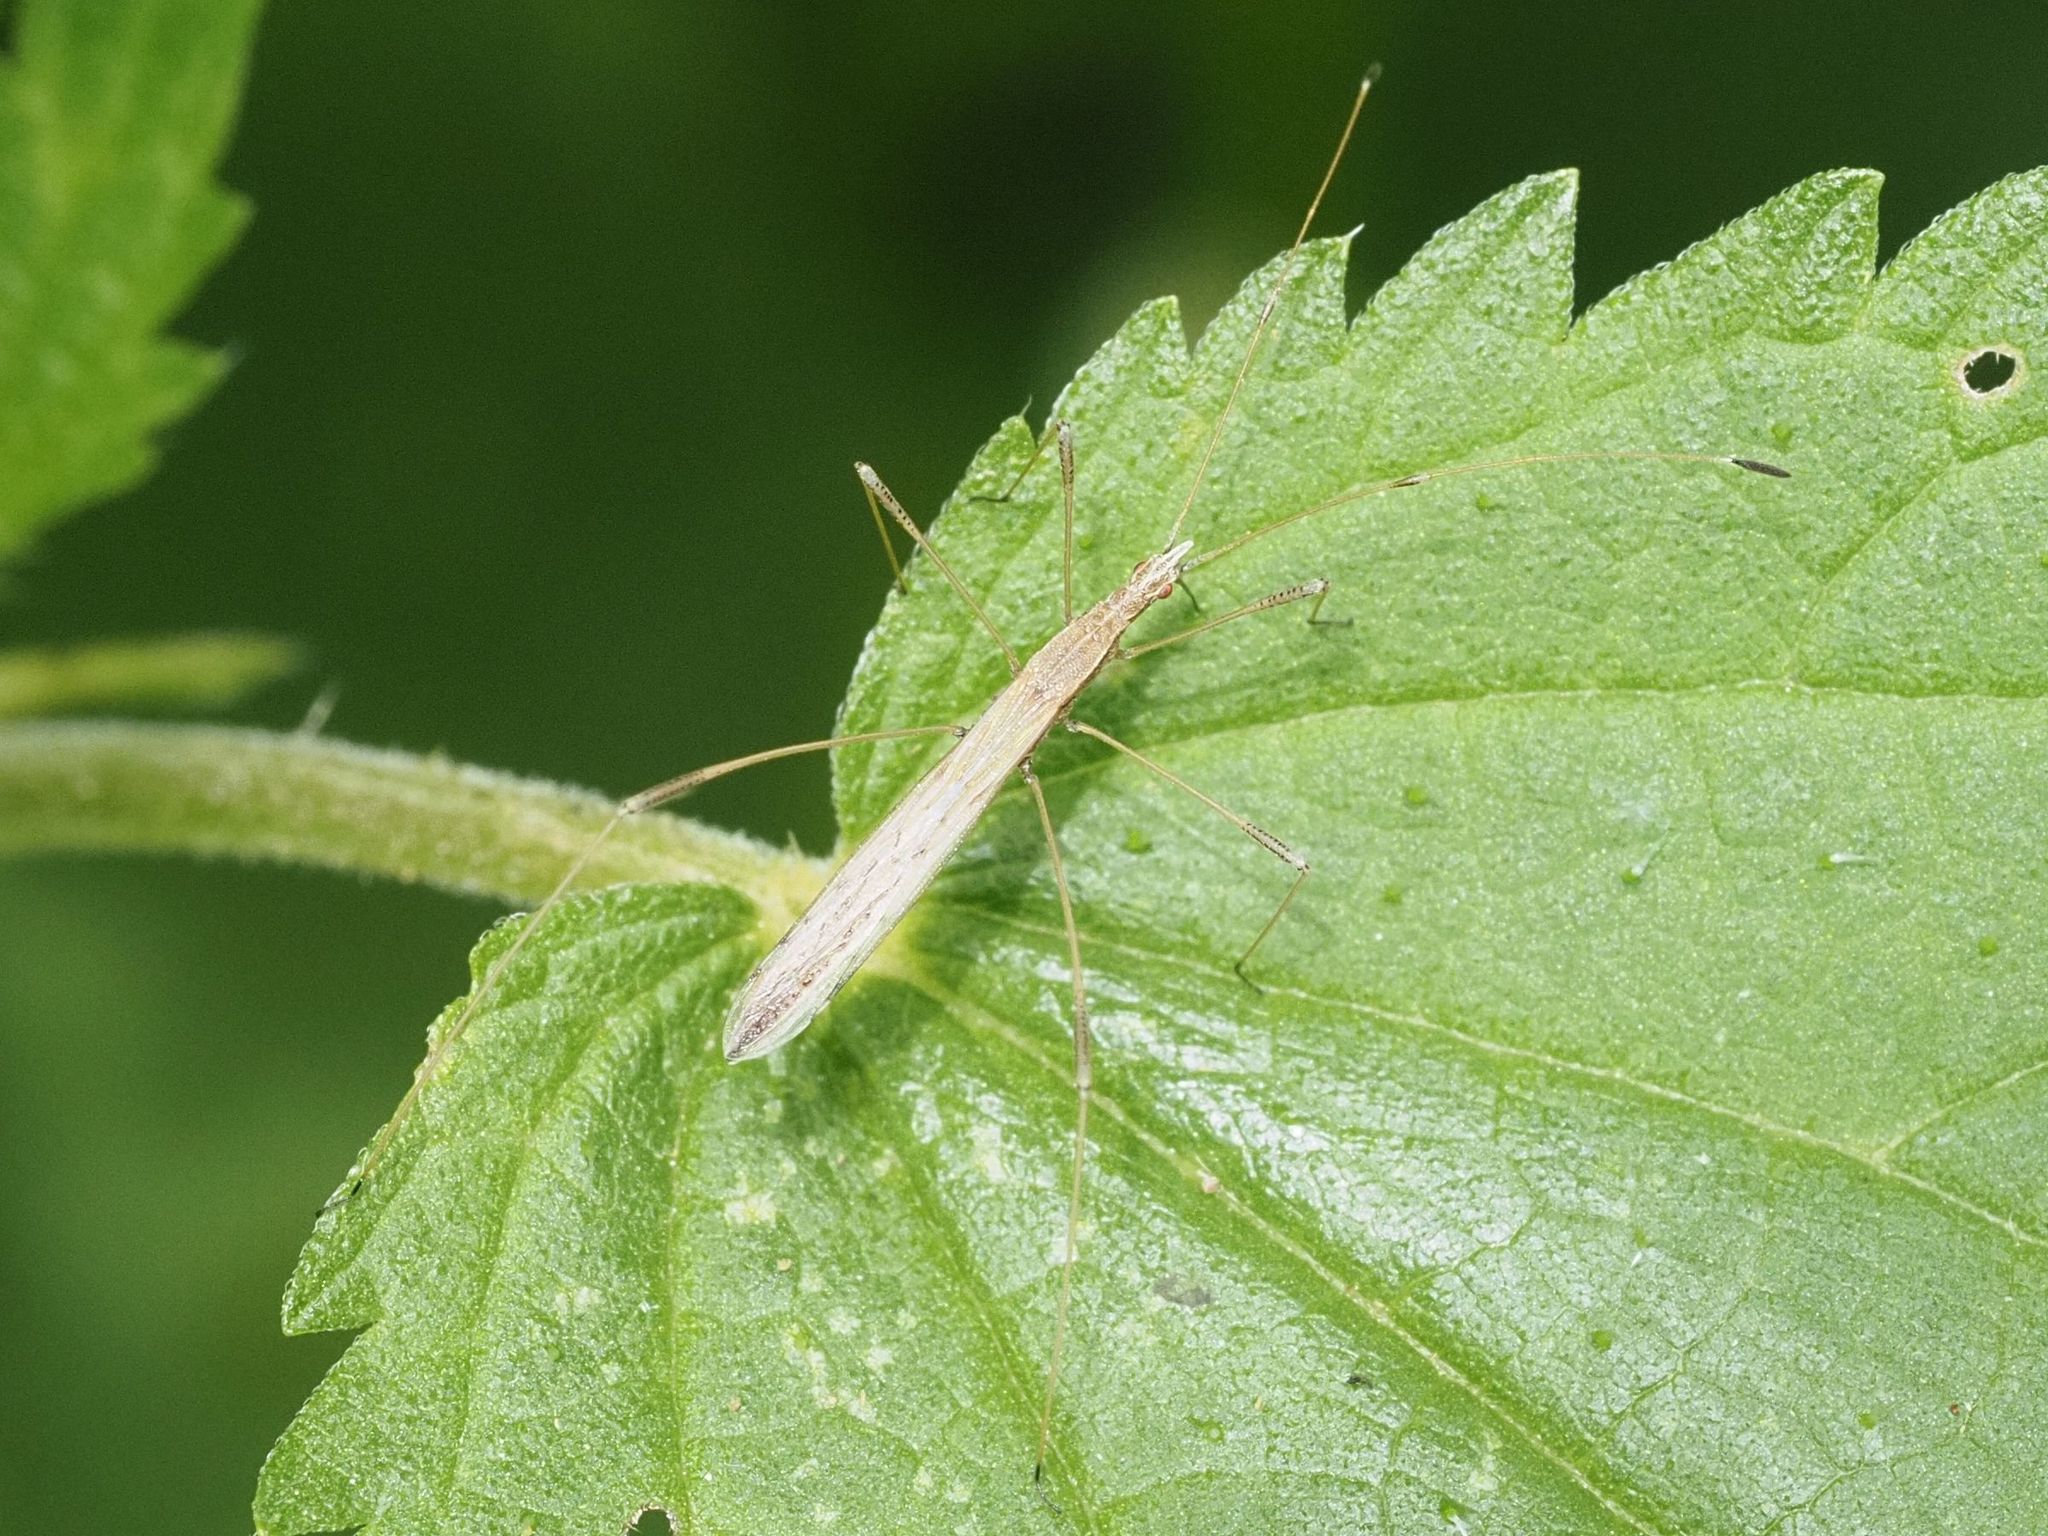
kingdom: Animalia
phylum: Arthropoda
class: Insecta
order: Hemiptera
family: Berytidae
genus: Neides
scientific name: Neides tipularius
